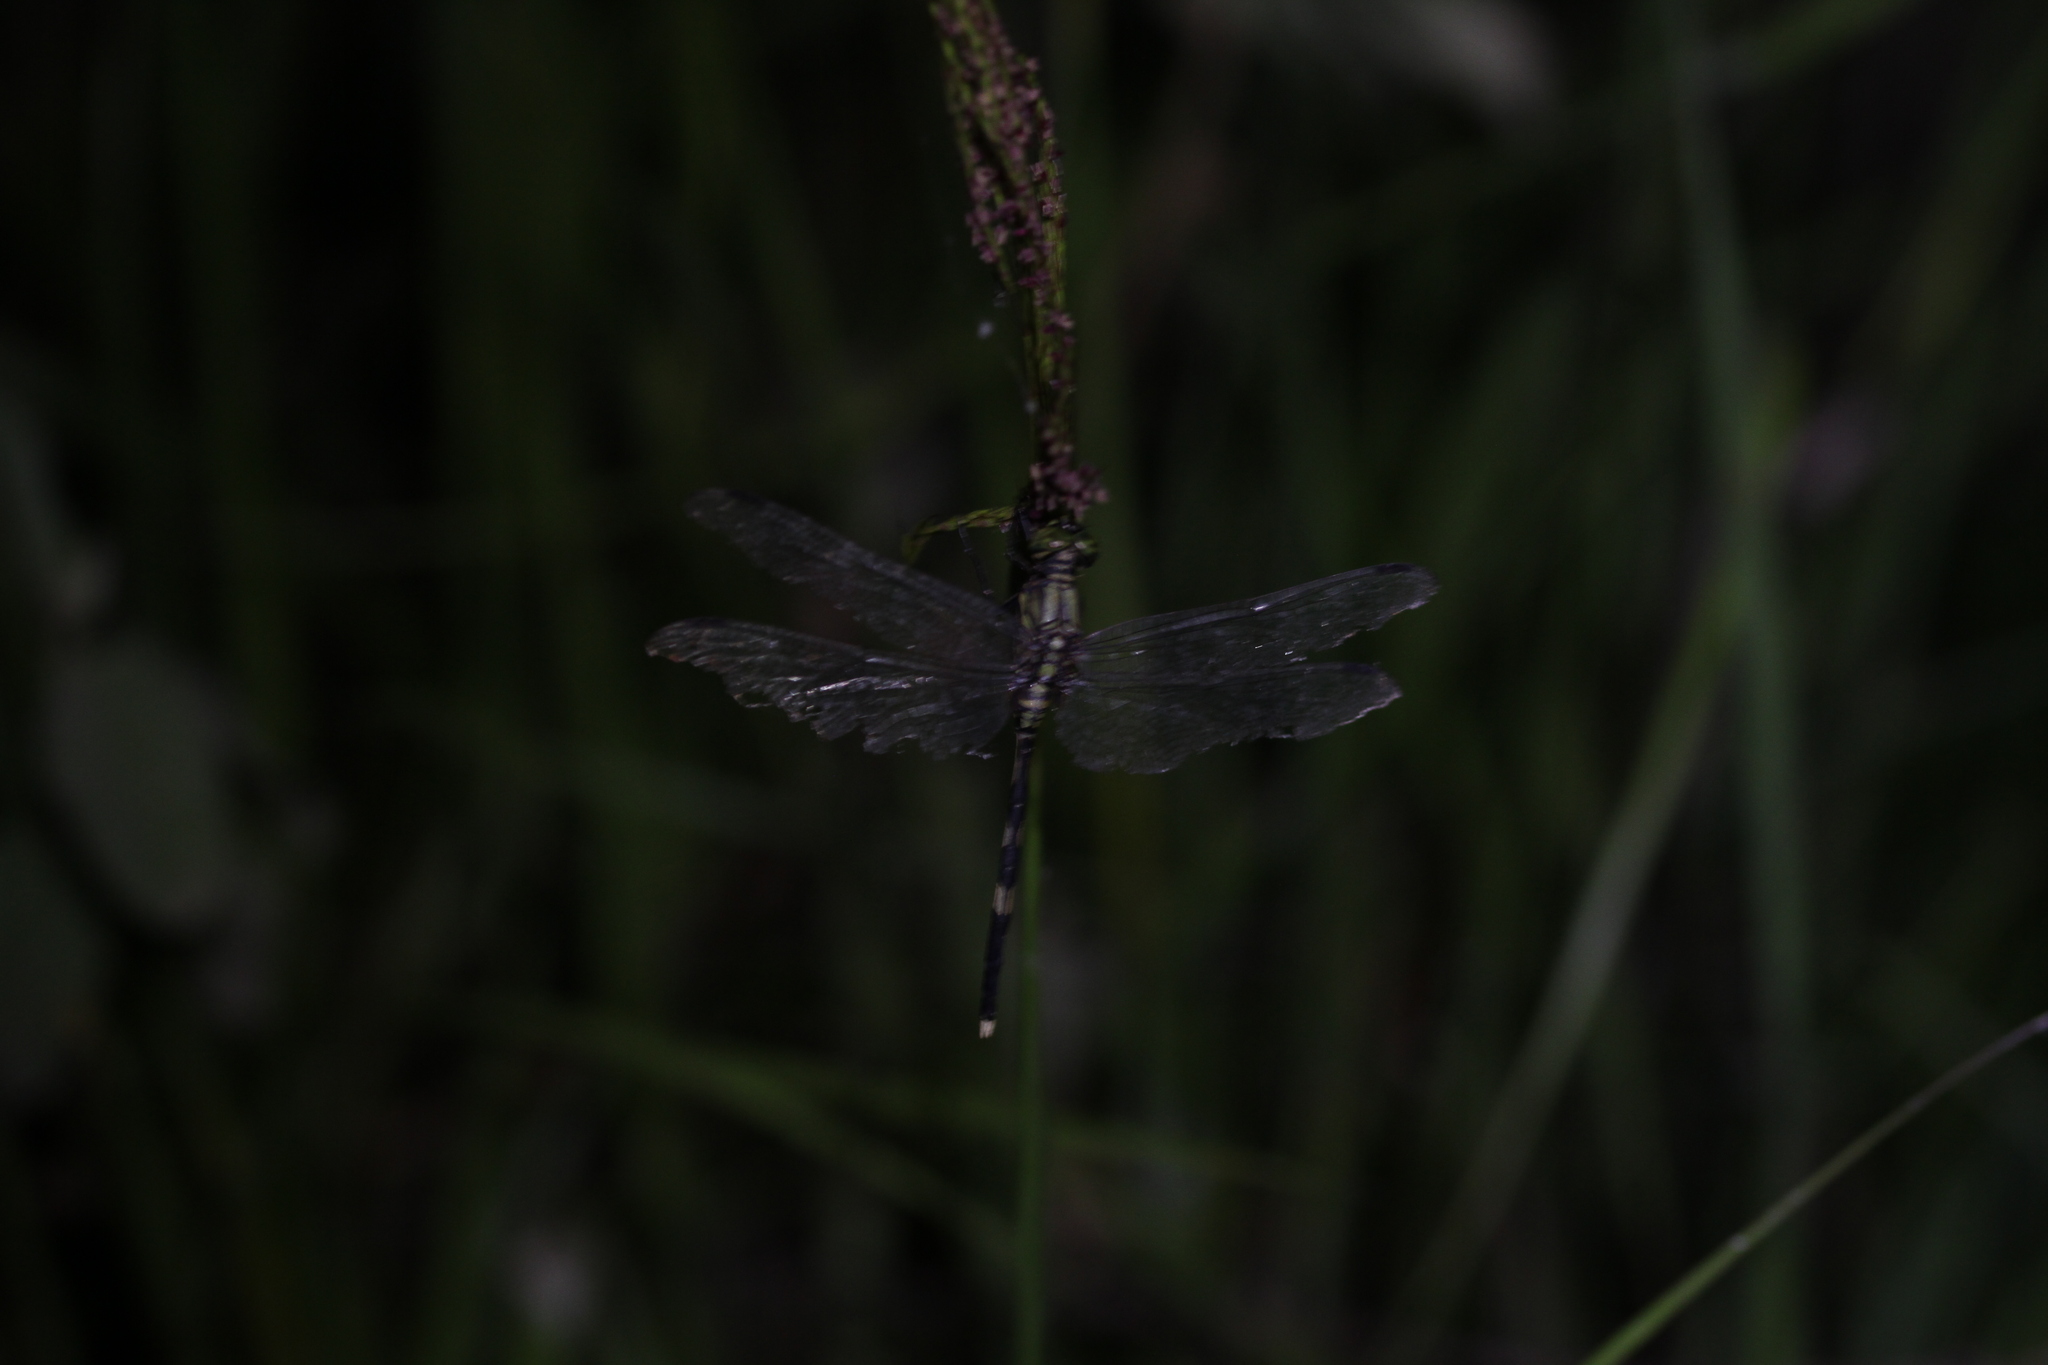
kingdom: Animalia
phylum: Arthropoda
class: Insecta
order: Odonata
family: Libellulidae
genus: Orthetrum
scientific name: Orthetrum sabina
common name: Slender skimmer
